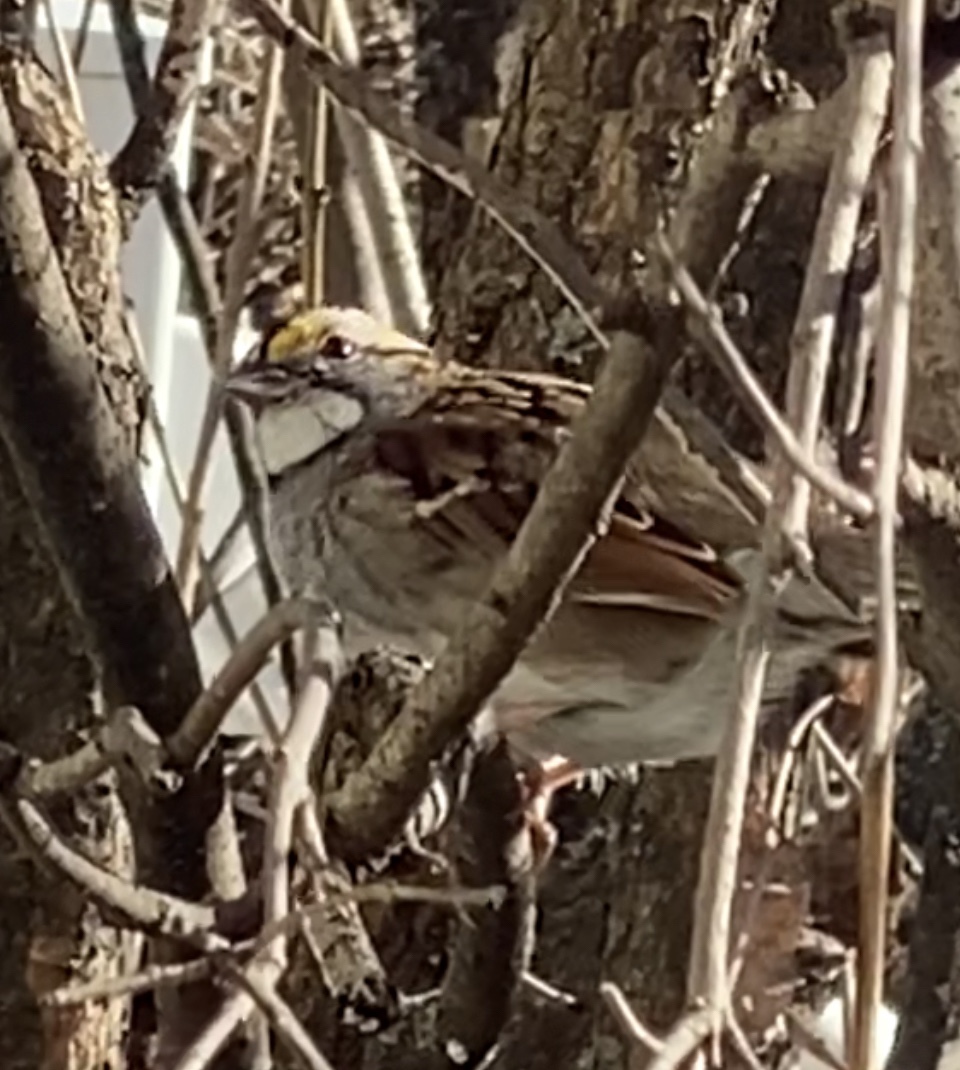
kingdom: Animalia
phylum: Chordata
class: Aves
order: Passeriformes
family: Passerellidae
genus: Zonotrichia
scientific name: Zonotrichia albicollis
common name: White-throated sparrow
